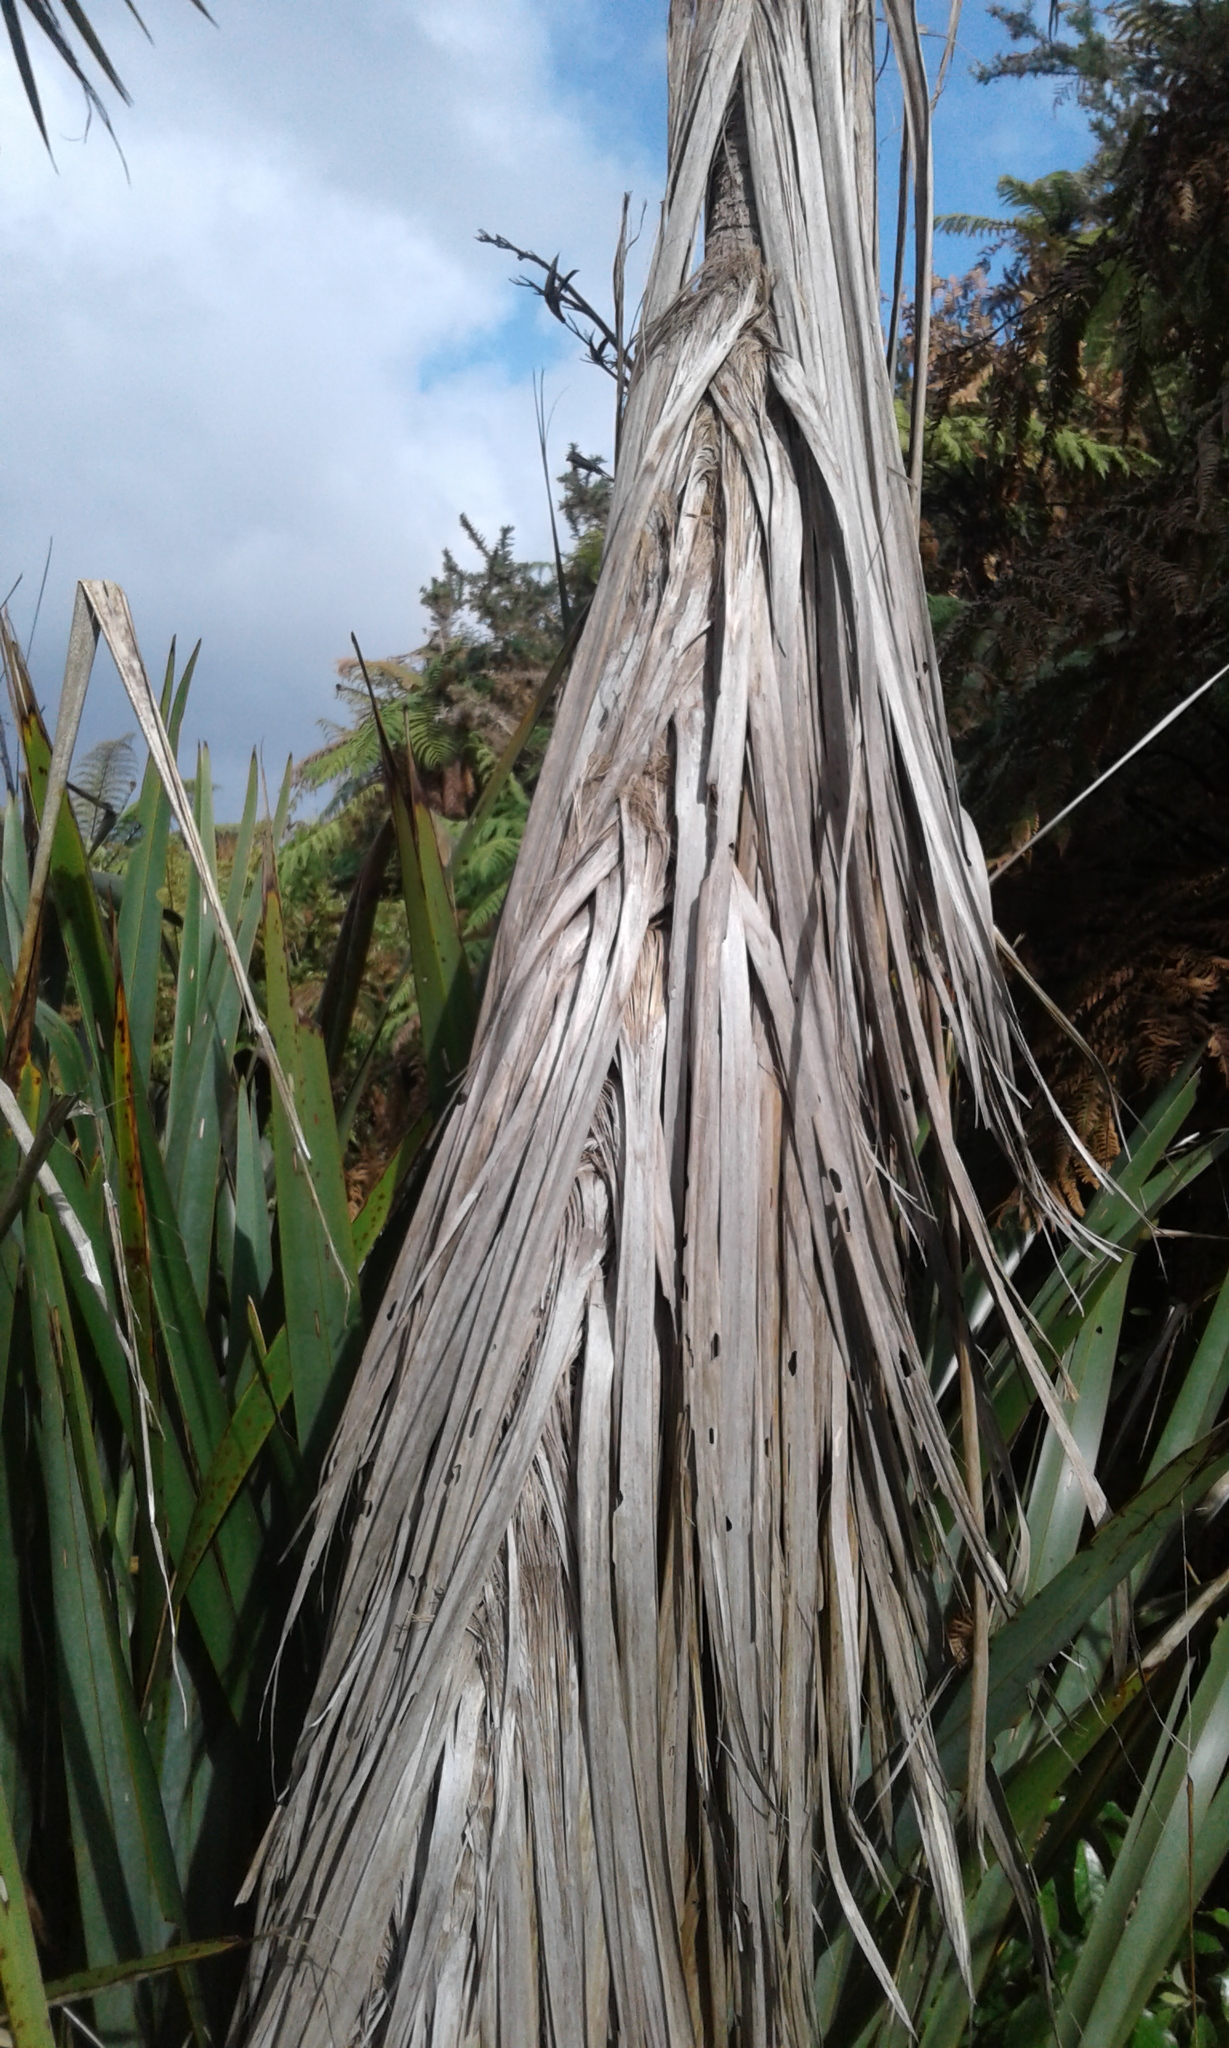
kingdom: Plantae
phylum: Tracheophyta
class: Liliopsida
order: Asparagales
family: Asparagaceae
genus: Cordyline
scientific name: Cordyline australis
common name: Cabbage-palm
